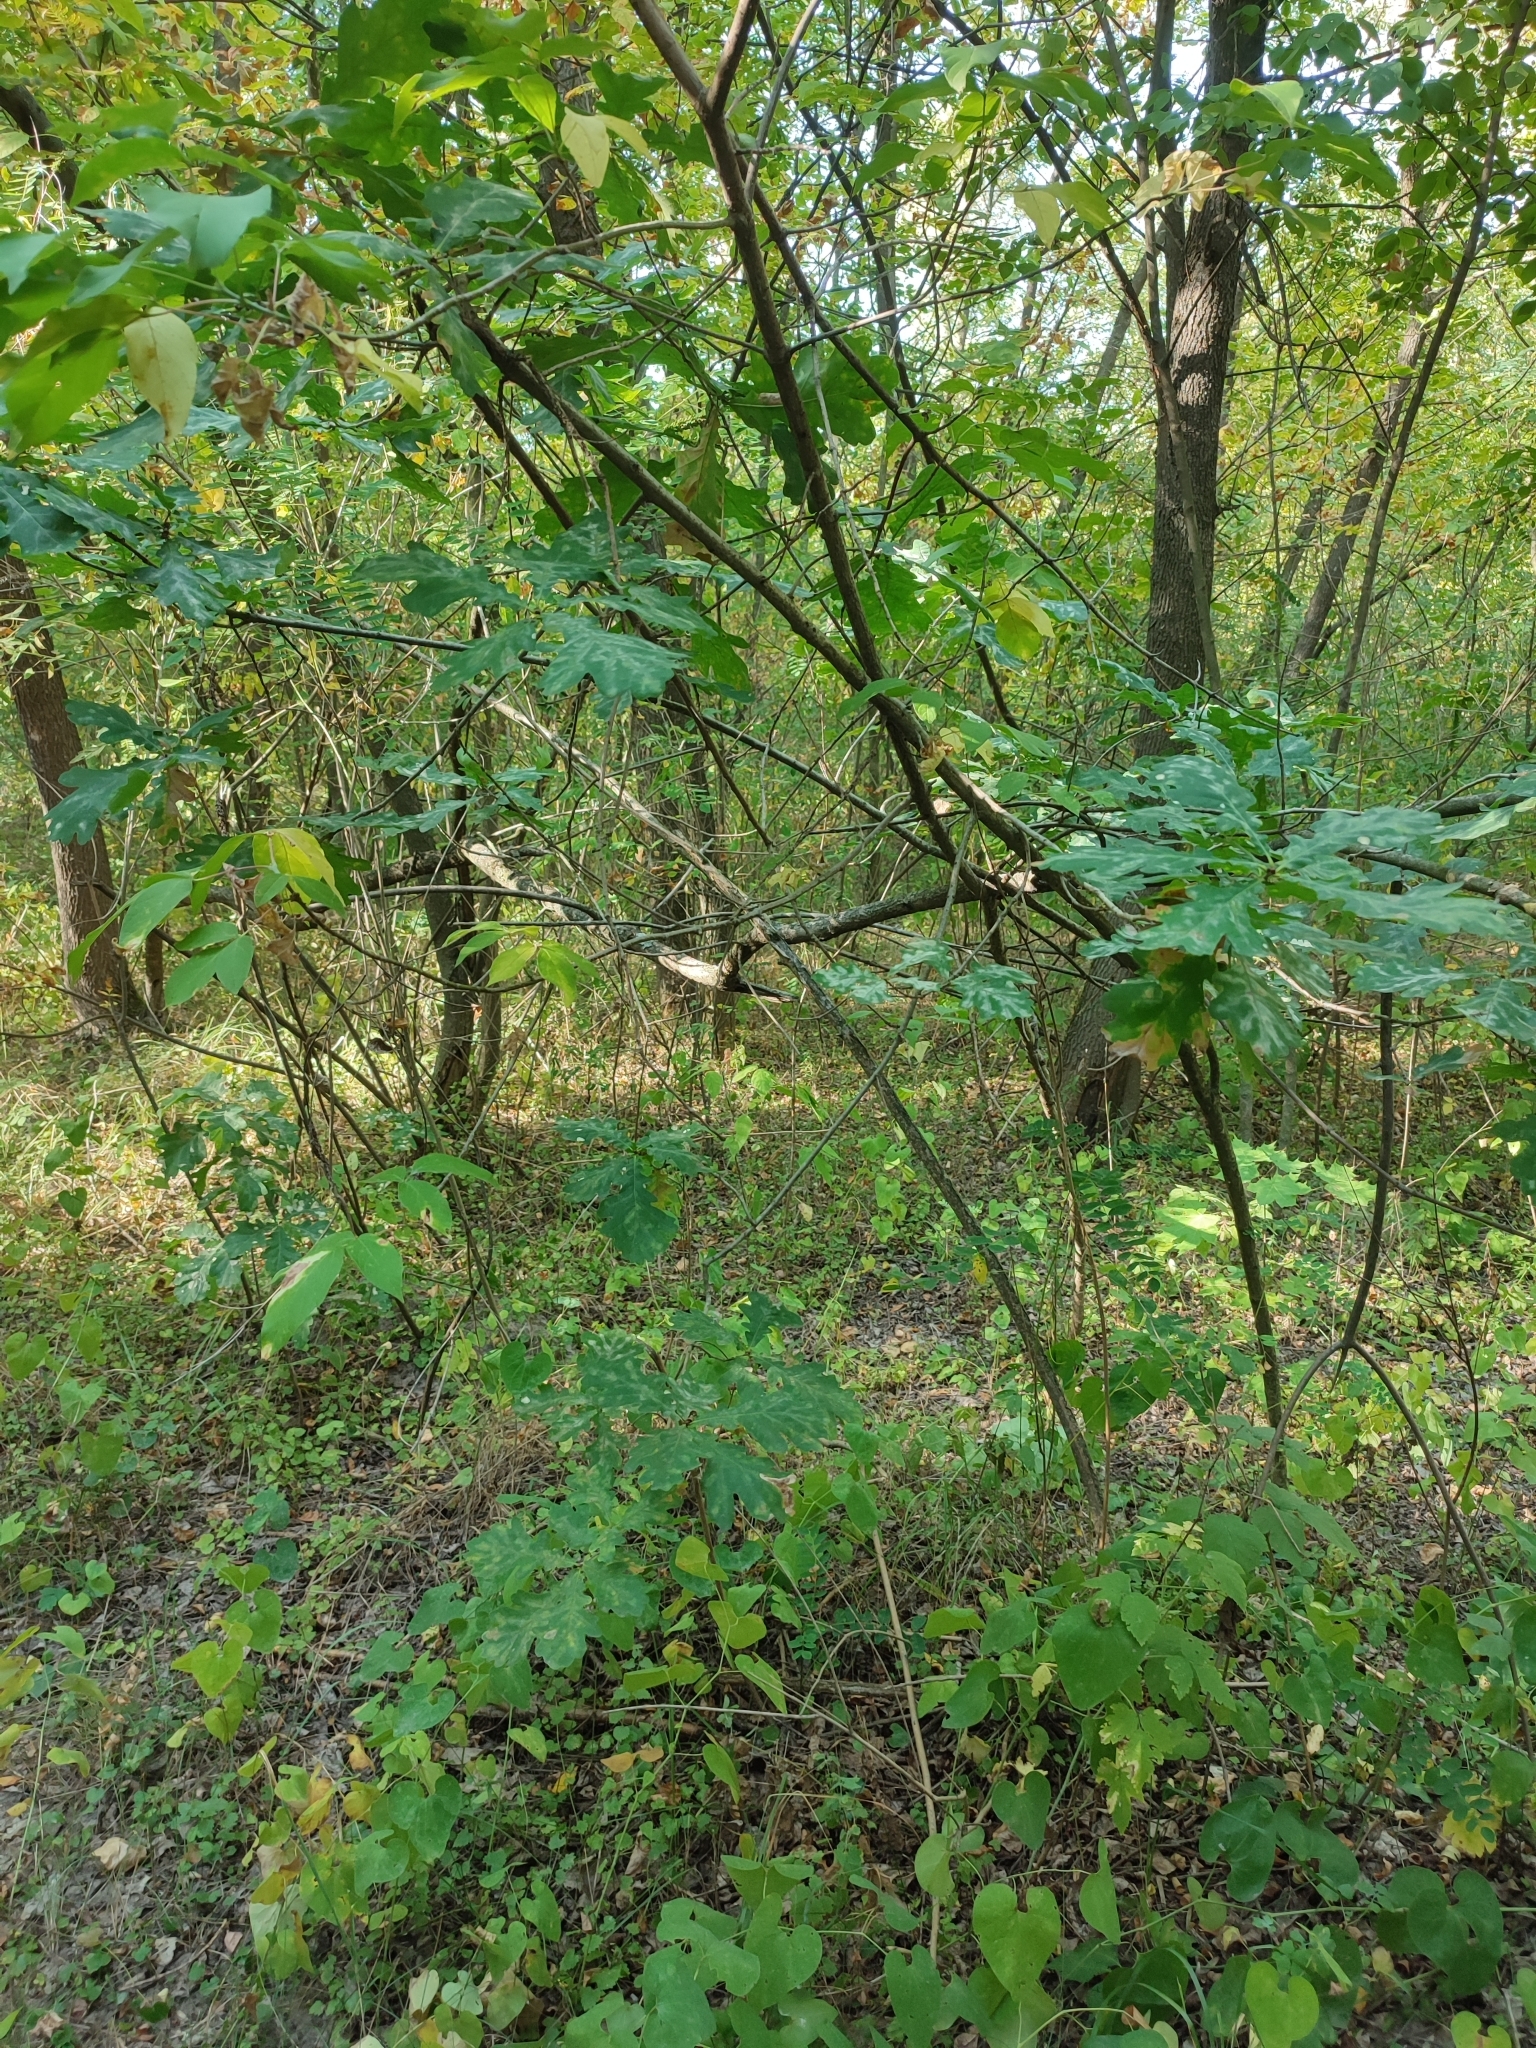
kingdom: Plantae
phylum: Tracheophyta
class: Magnoliopsida
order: Fagales
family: Fagaceae
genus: Quercus
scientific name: Quercus robur
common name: Pedunculate oak
